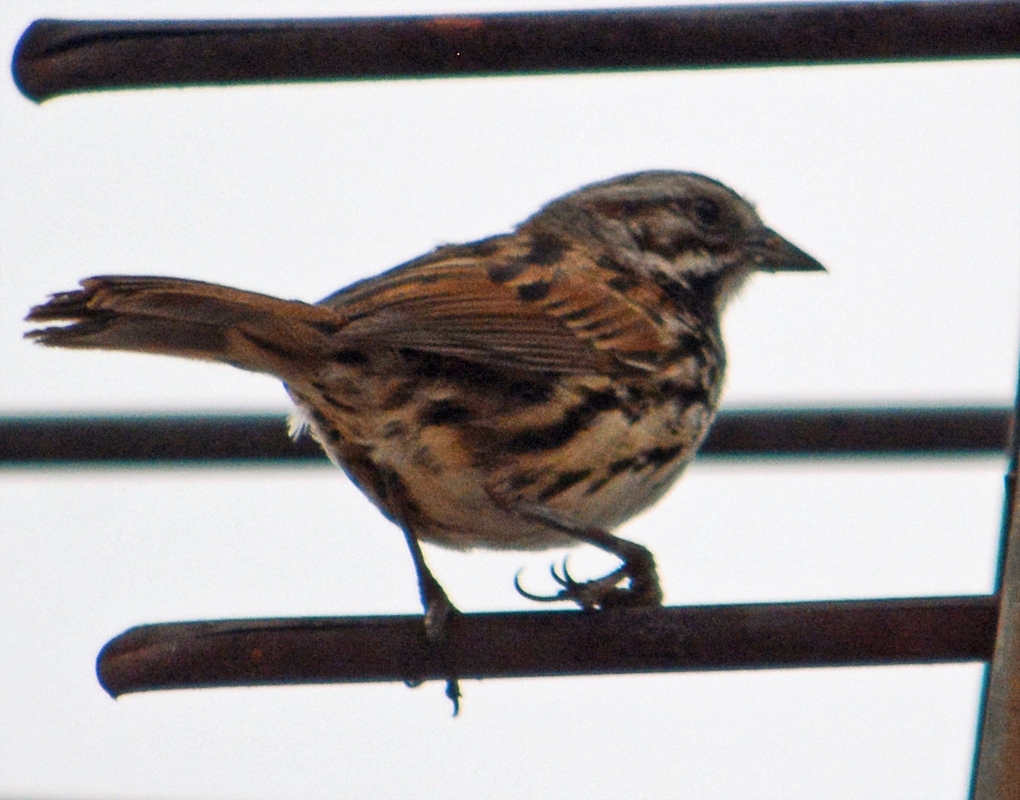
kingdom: Animalia
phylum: Chordata
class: Aves
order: Passeriformes
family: Passerellidae
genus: Melospiza
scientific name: Melospiza melodia
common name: Song sparrow
